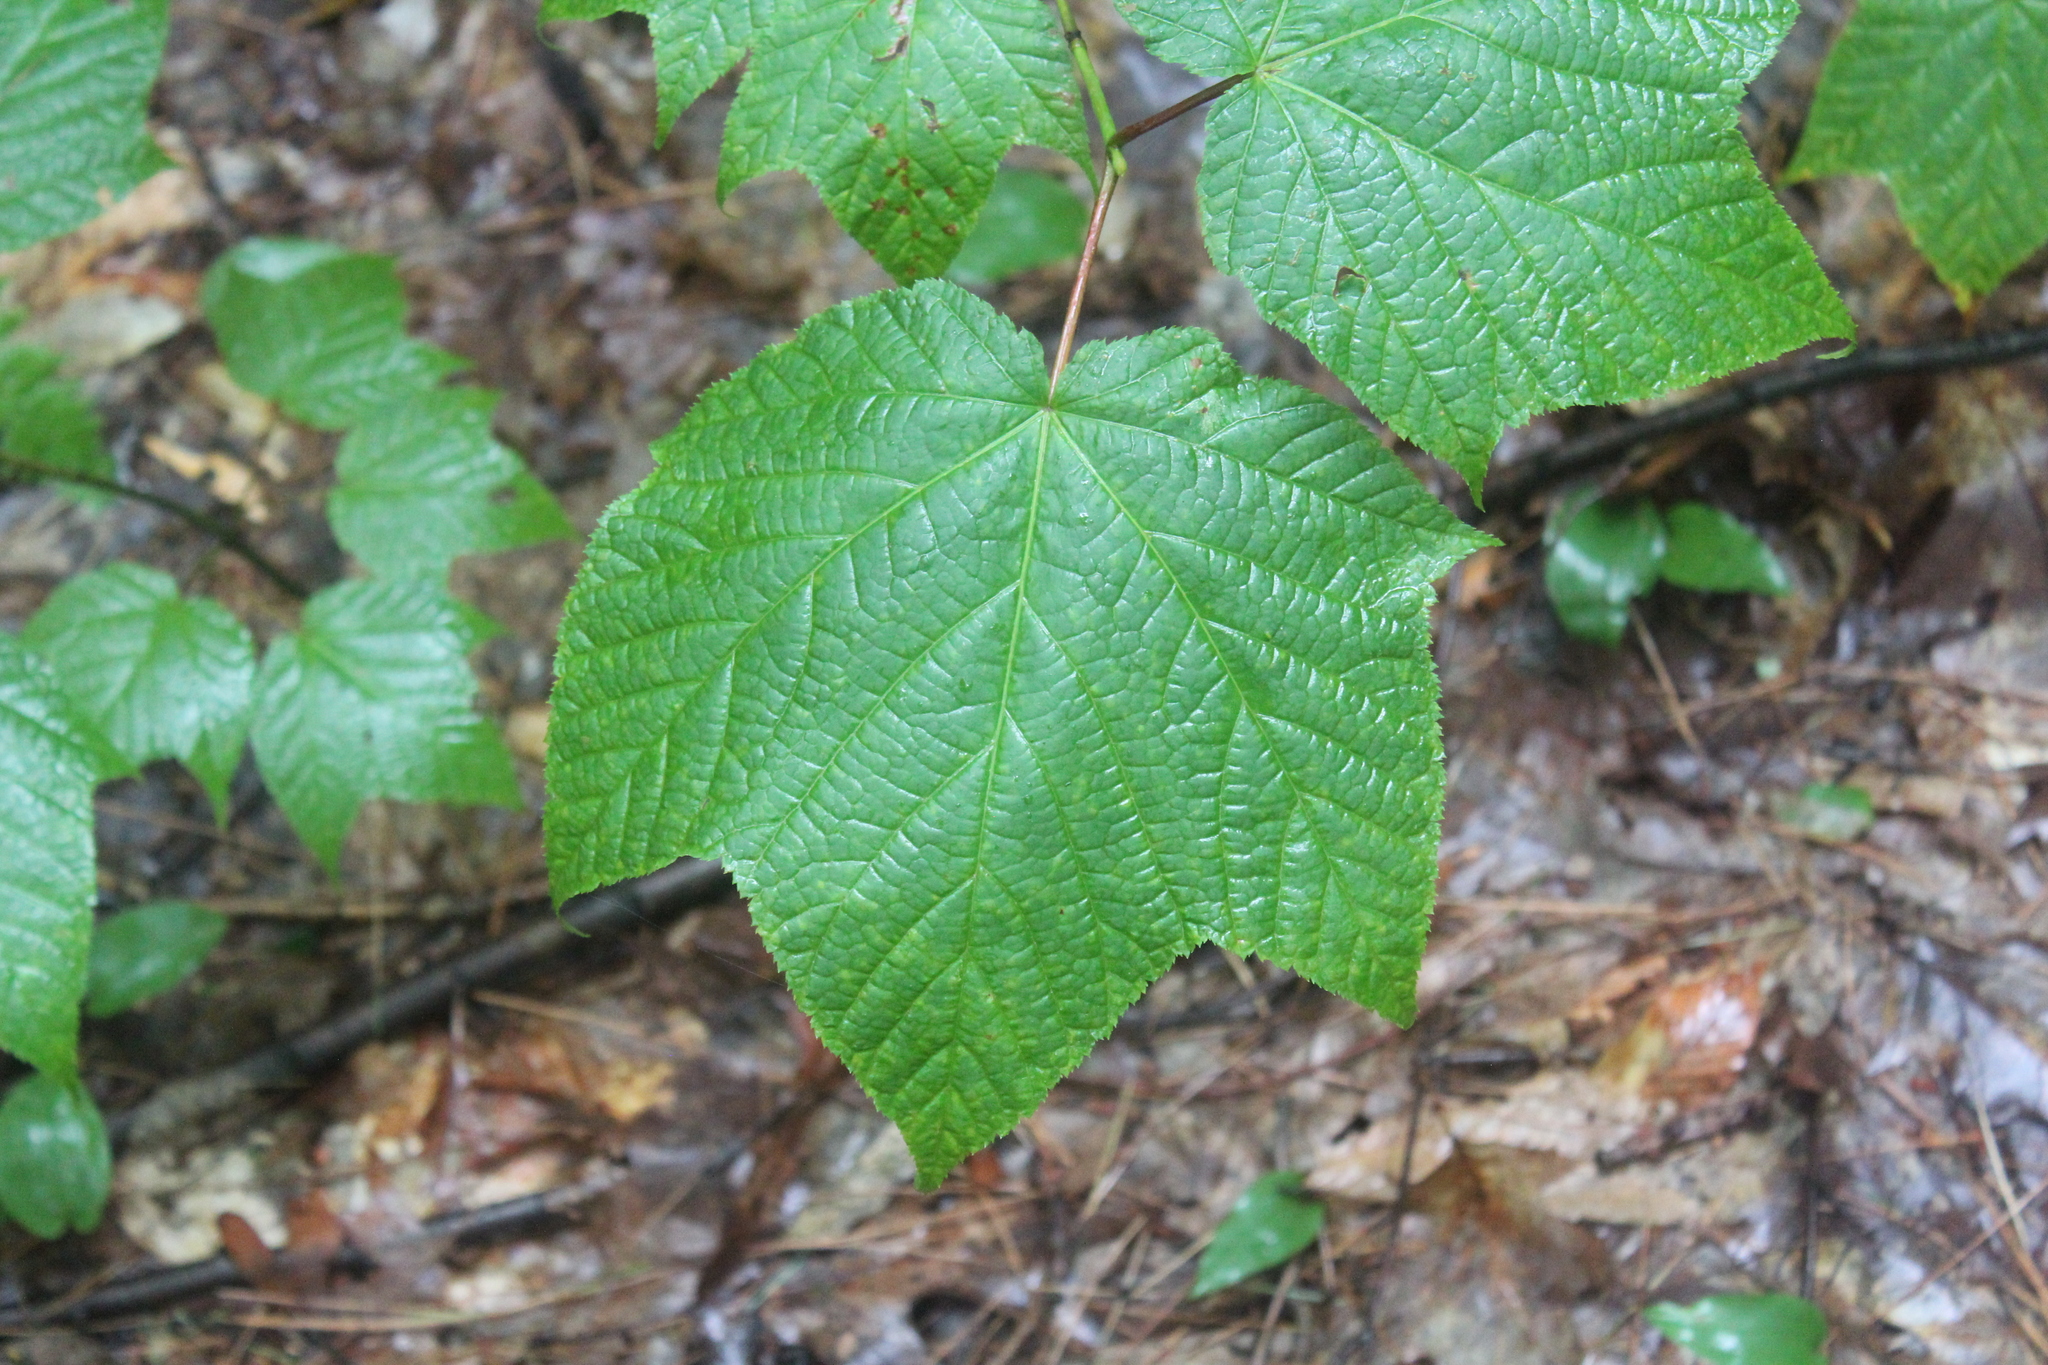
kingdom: Plantae
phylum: Tracheophyta
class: Magnoliopsida
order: Sapindales
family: Sapindaceae
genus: Acer
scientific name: Acer pensylvanicum
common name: Moosewood
